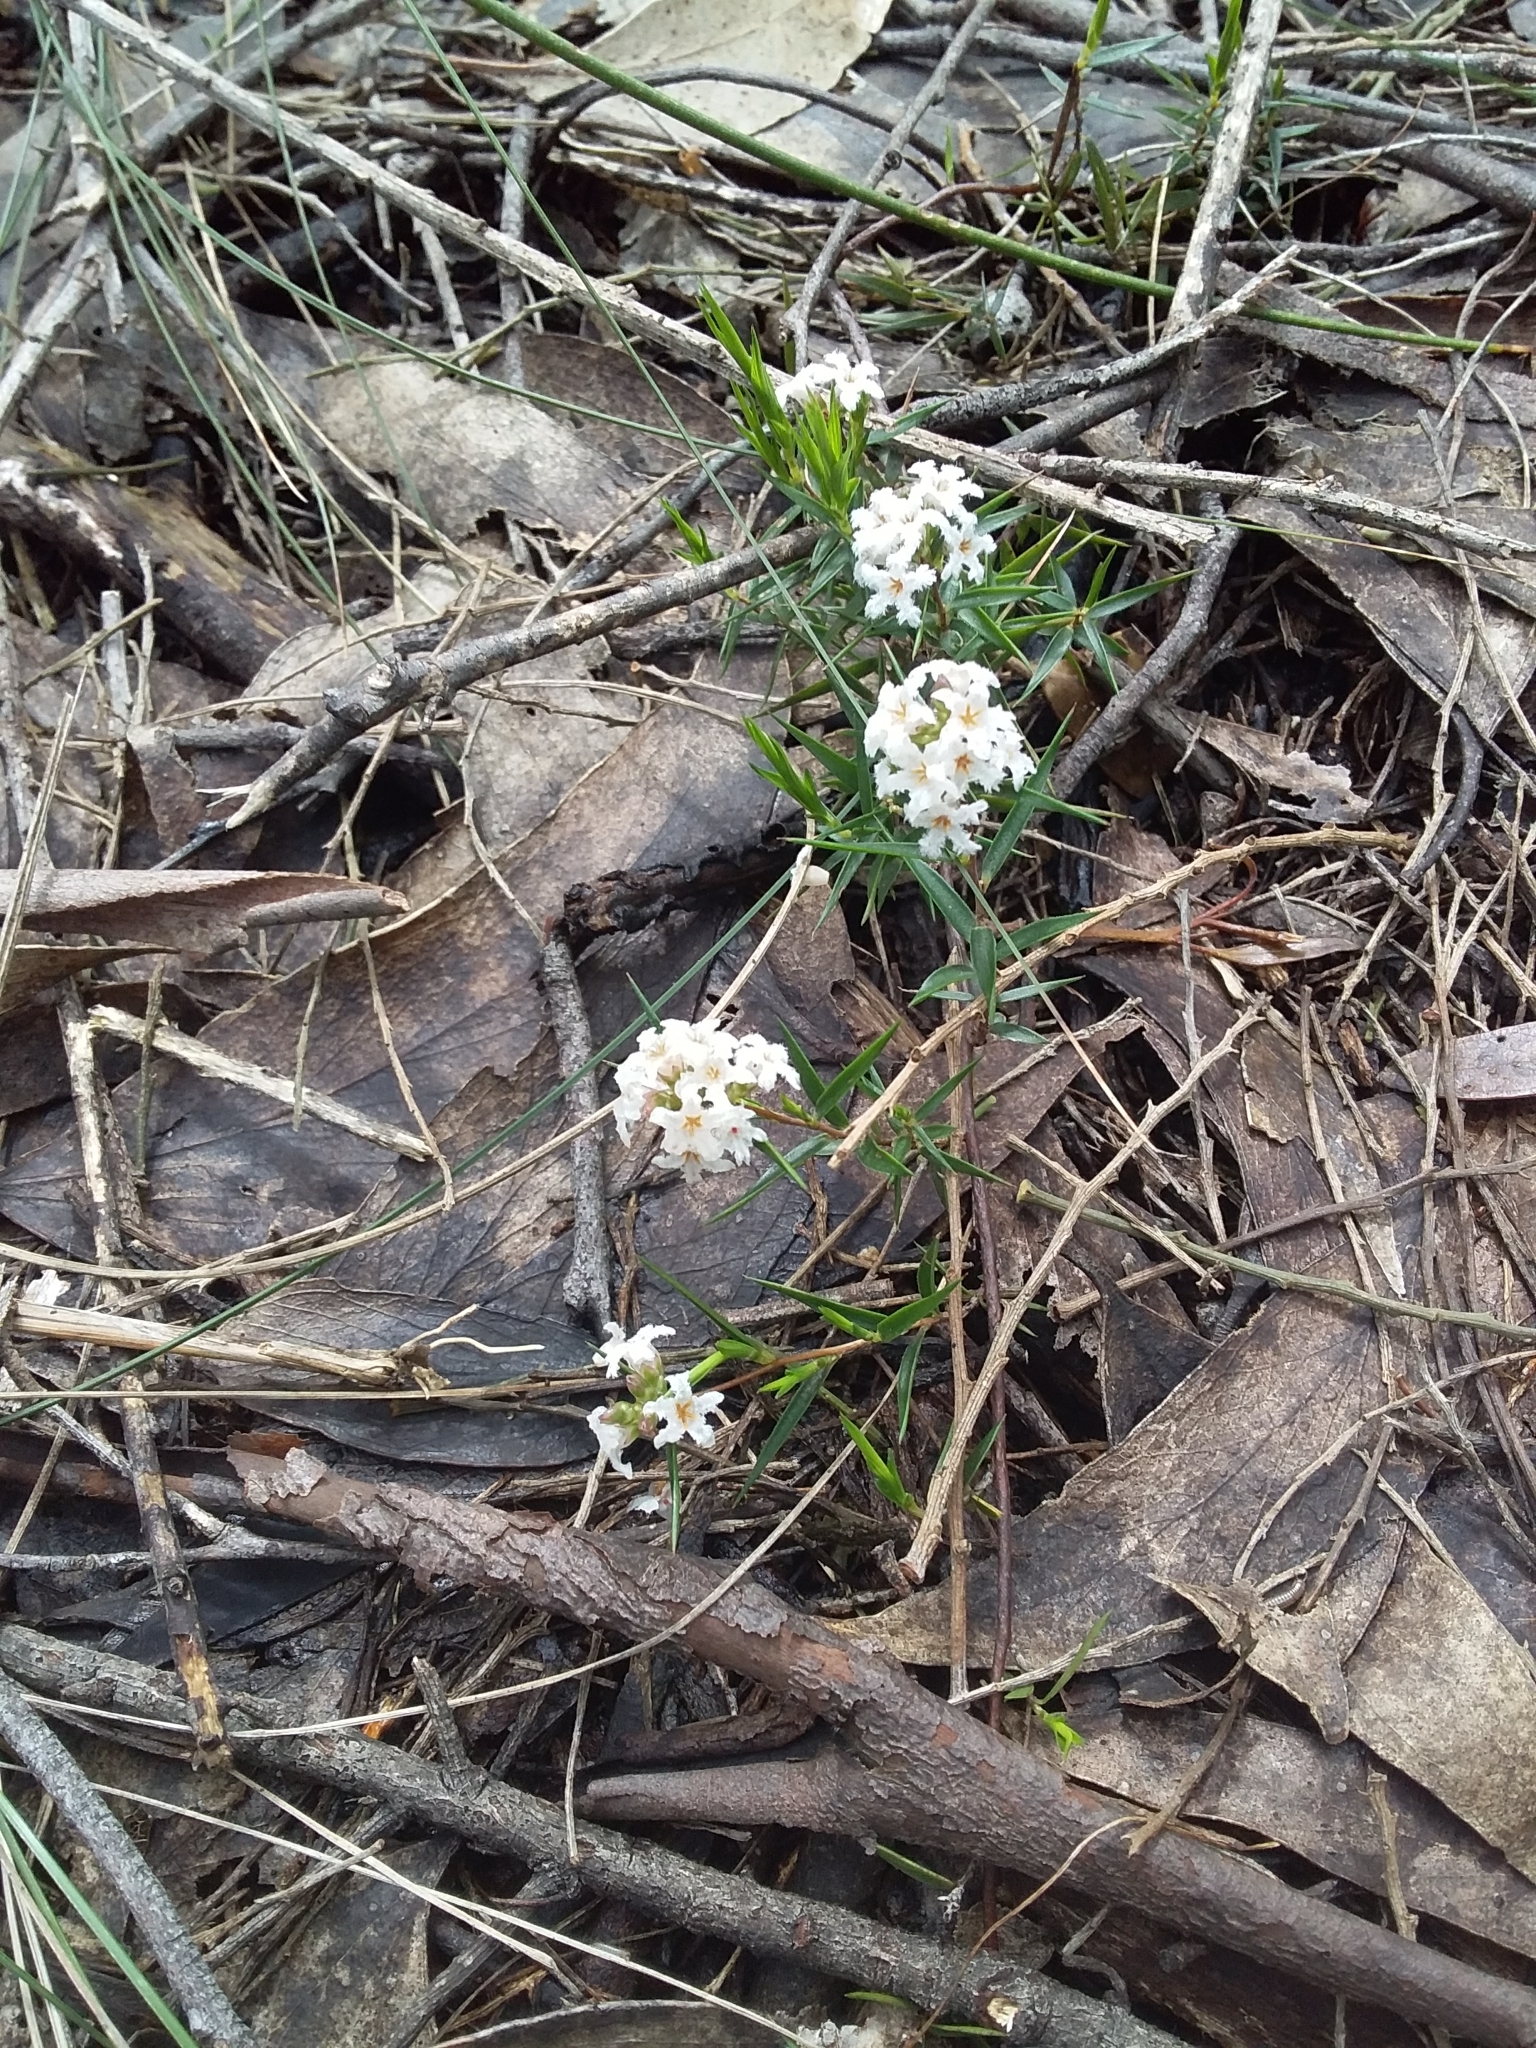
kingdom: Plantae
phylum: Tracheophyta
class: Magnoliopsida
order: Ericales
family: Ericaceae
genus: Leucopogon
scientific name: Leucopogon virgatus
